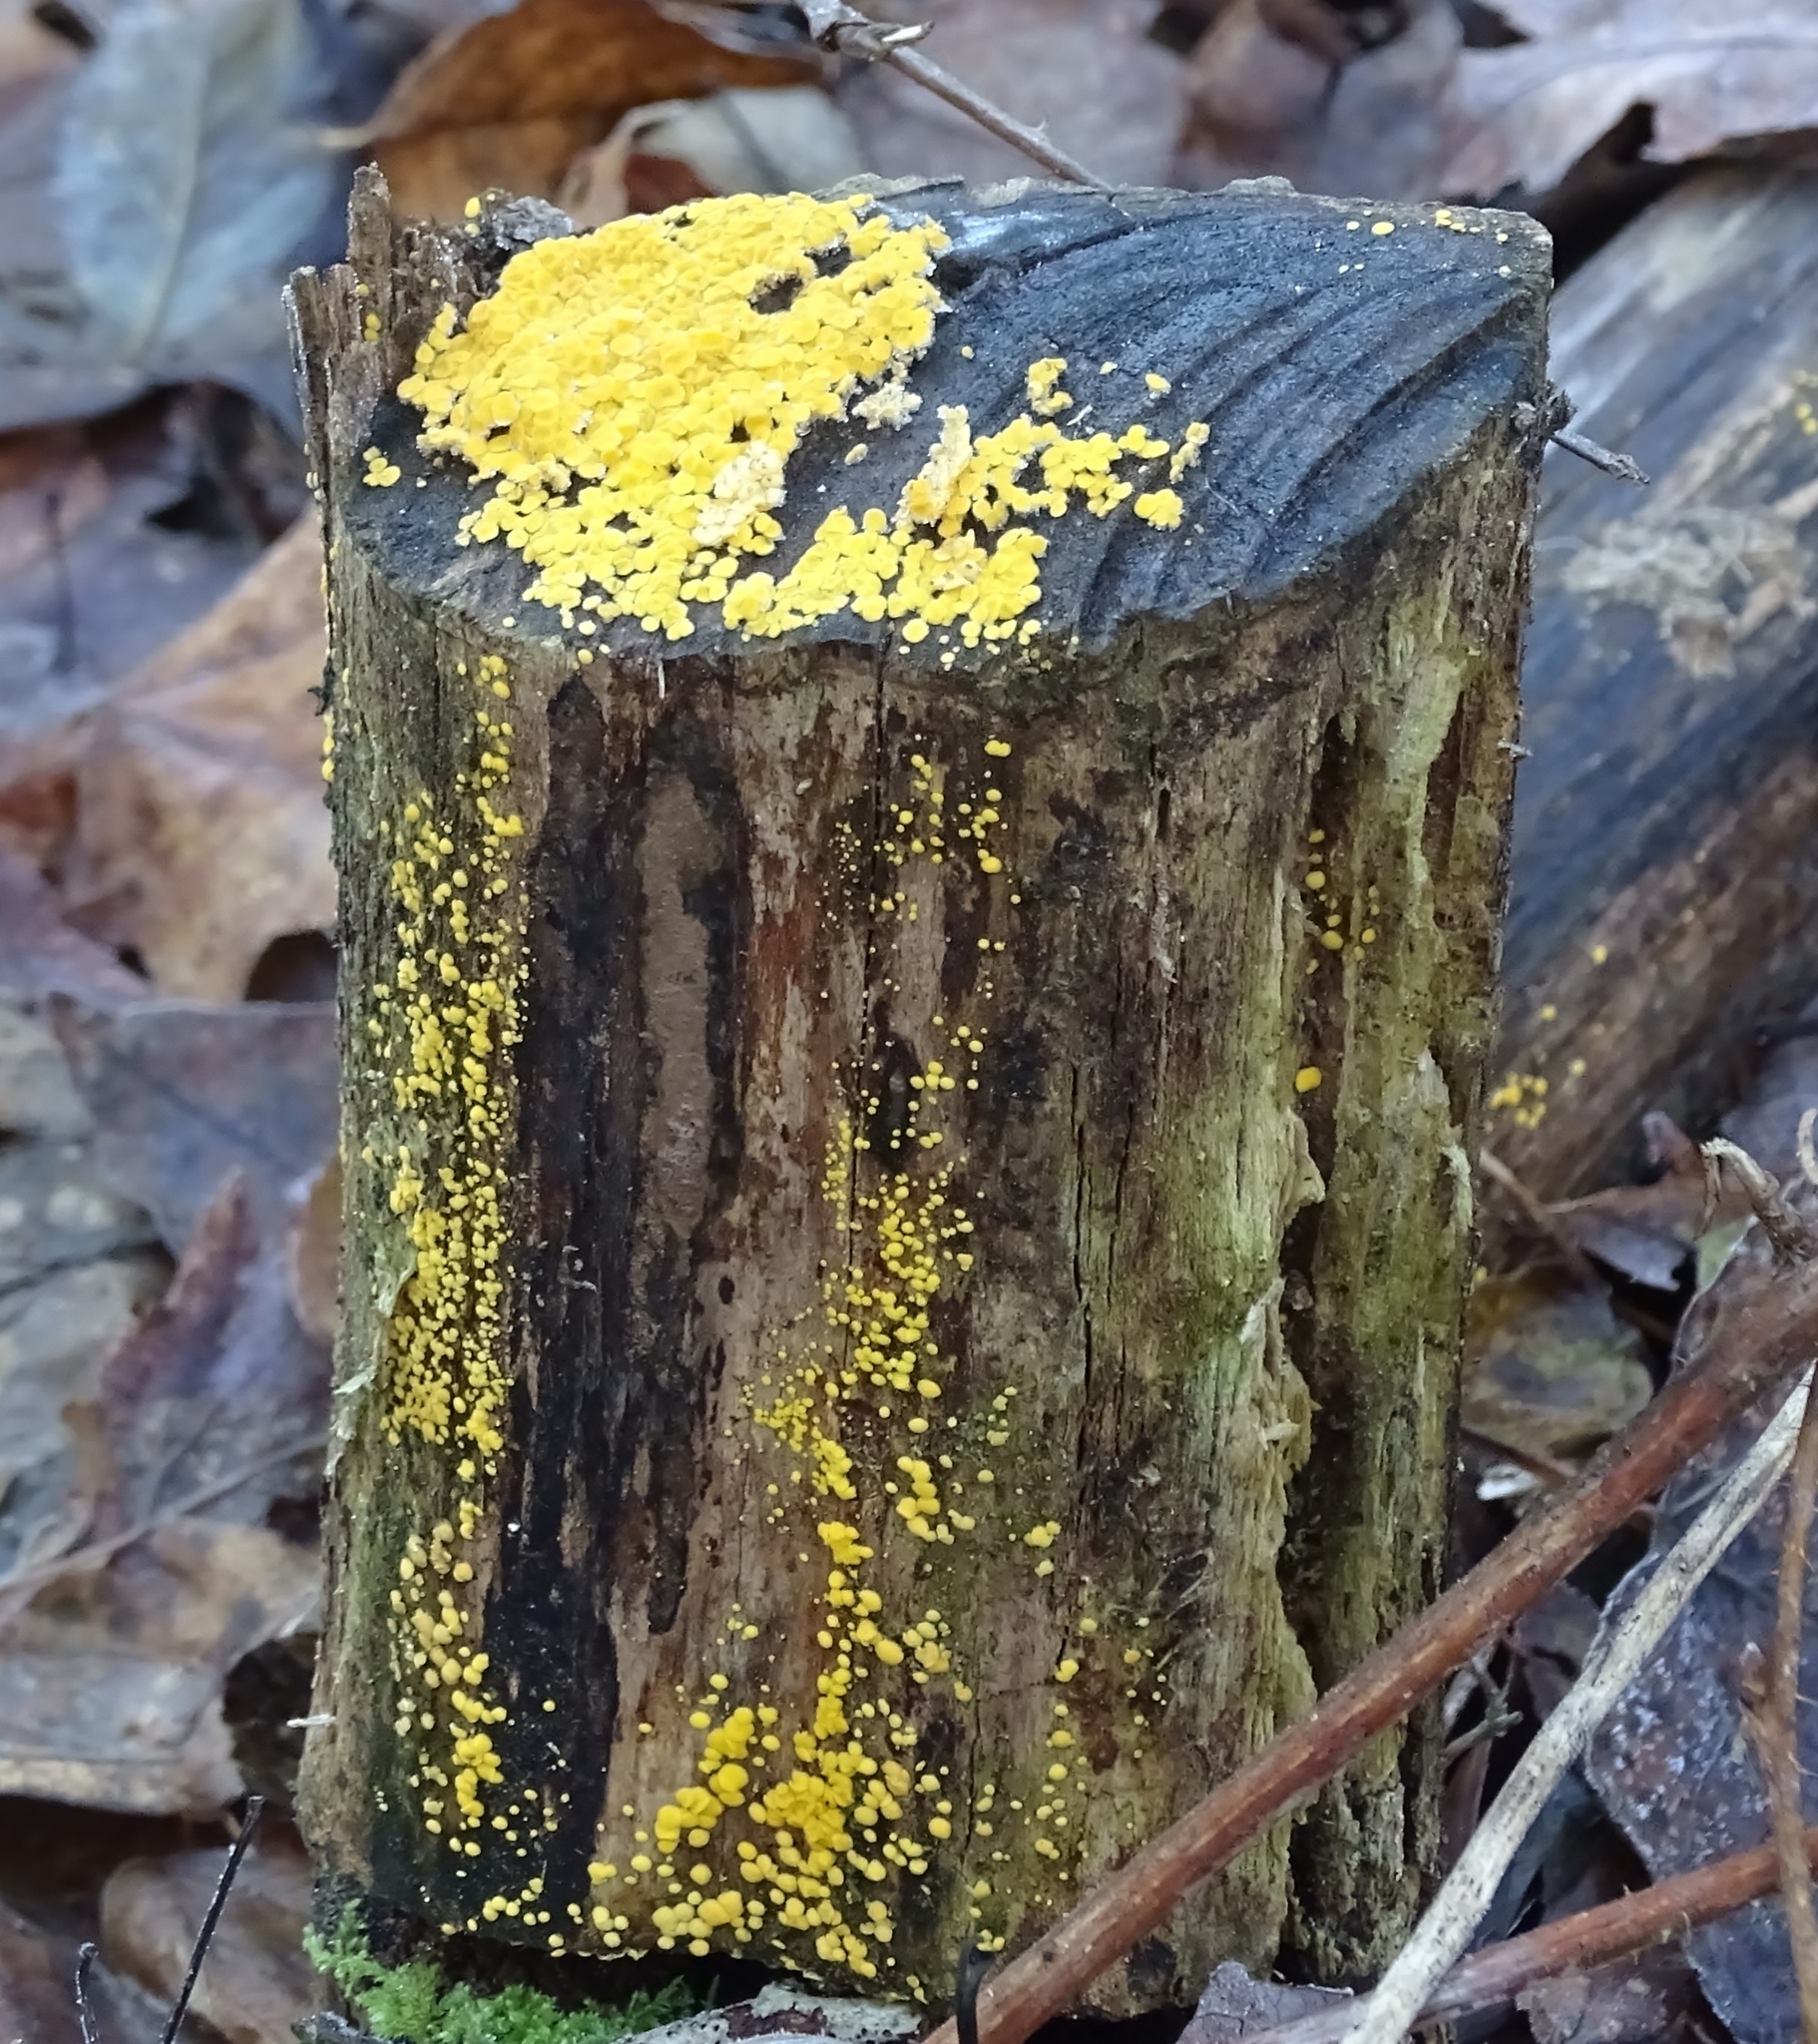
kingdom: Fungi
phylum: Ascomycota
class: Leotiomycetes
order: Helotiales
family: Pezizellaceae
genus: Calycina
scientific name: Calycina citrina
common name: Yellow fairy cups
